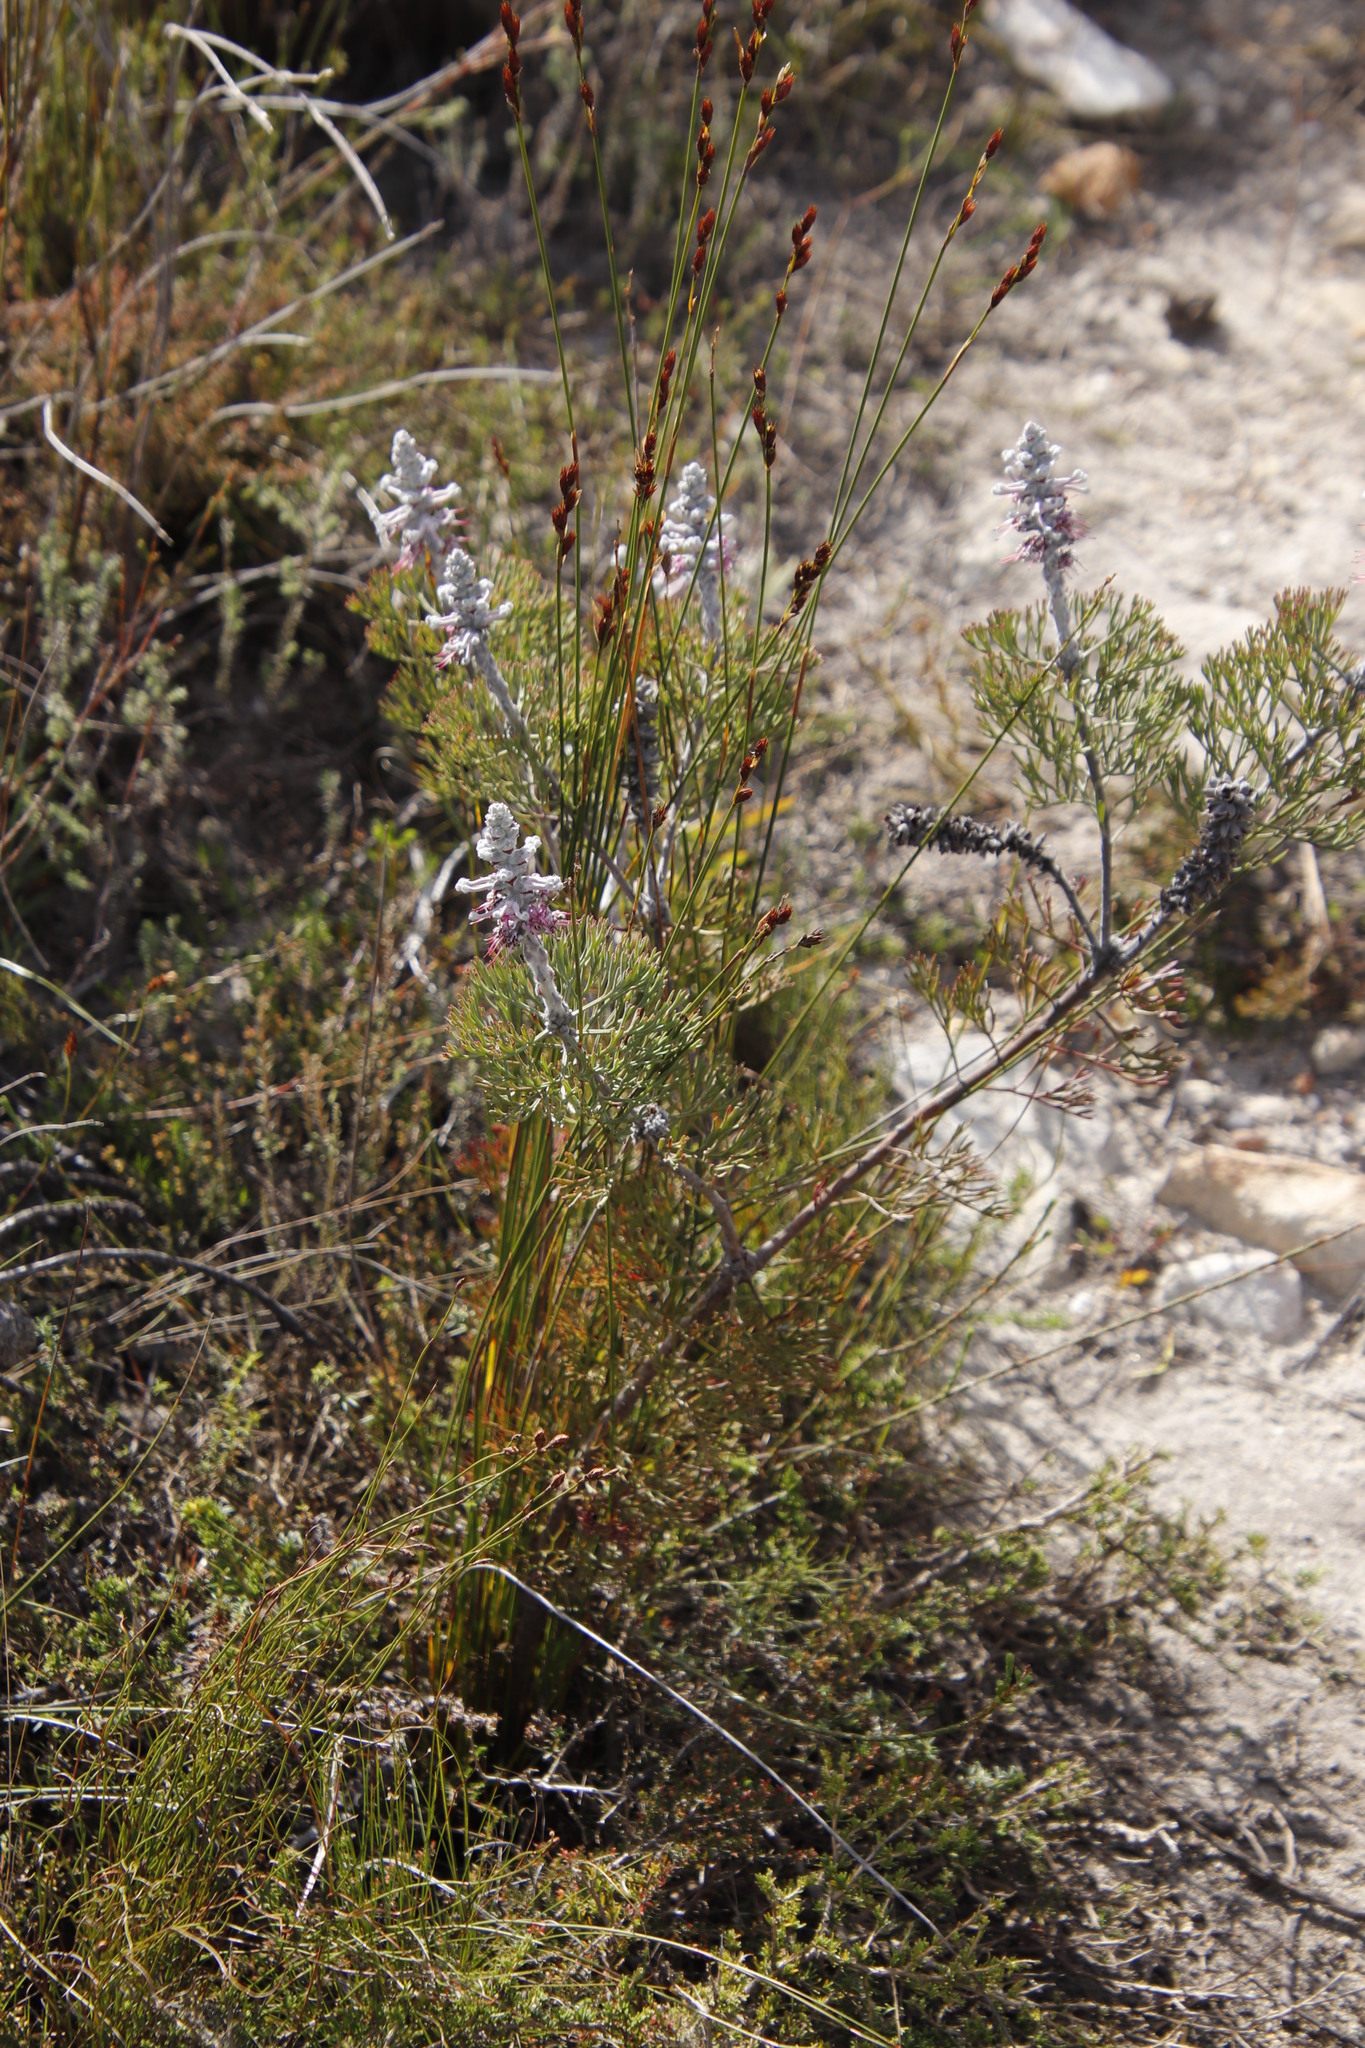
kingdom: Plantae
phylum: Tracheophyta
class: Magnoliopsida
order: Proteales
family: Proteaceae
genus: Paranomus
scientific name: Paranomus bolusii
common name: Overberg sceptre
